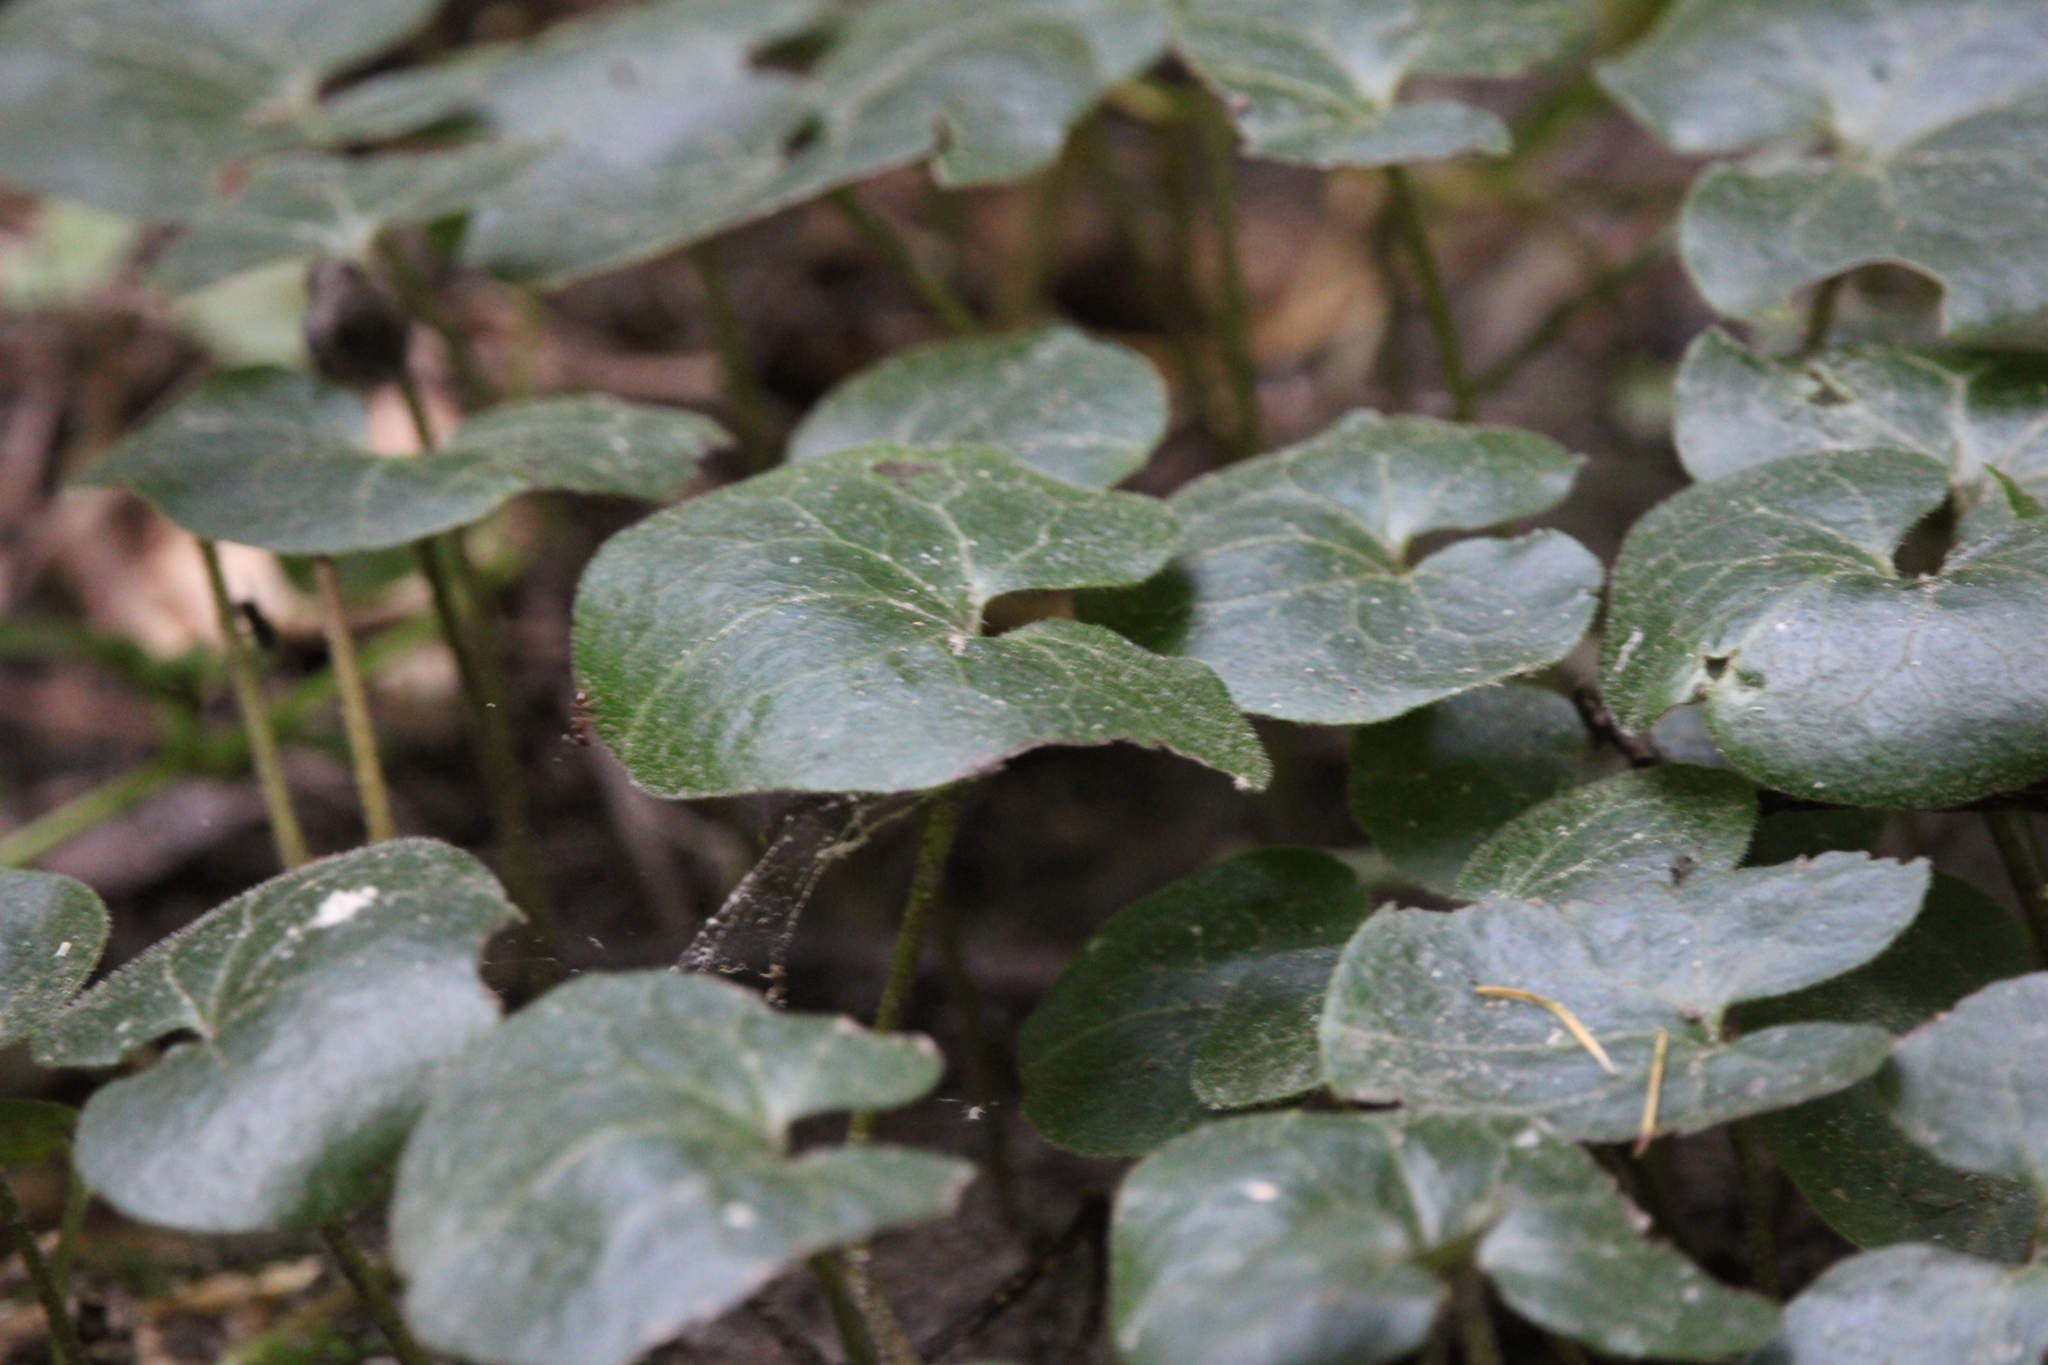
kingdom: Plantae
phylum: Tracheophyta
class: Magnoliopsida
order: Piperales
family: Aristolochiaceae
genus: Asarum
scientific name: Asarum europaeum
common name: Asarabacca
